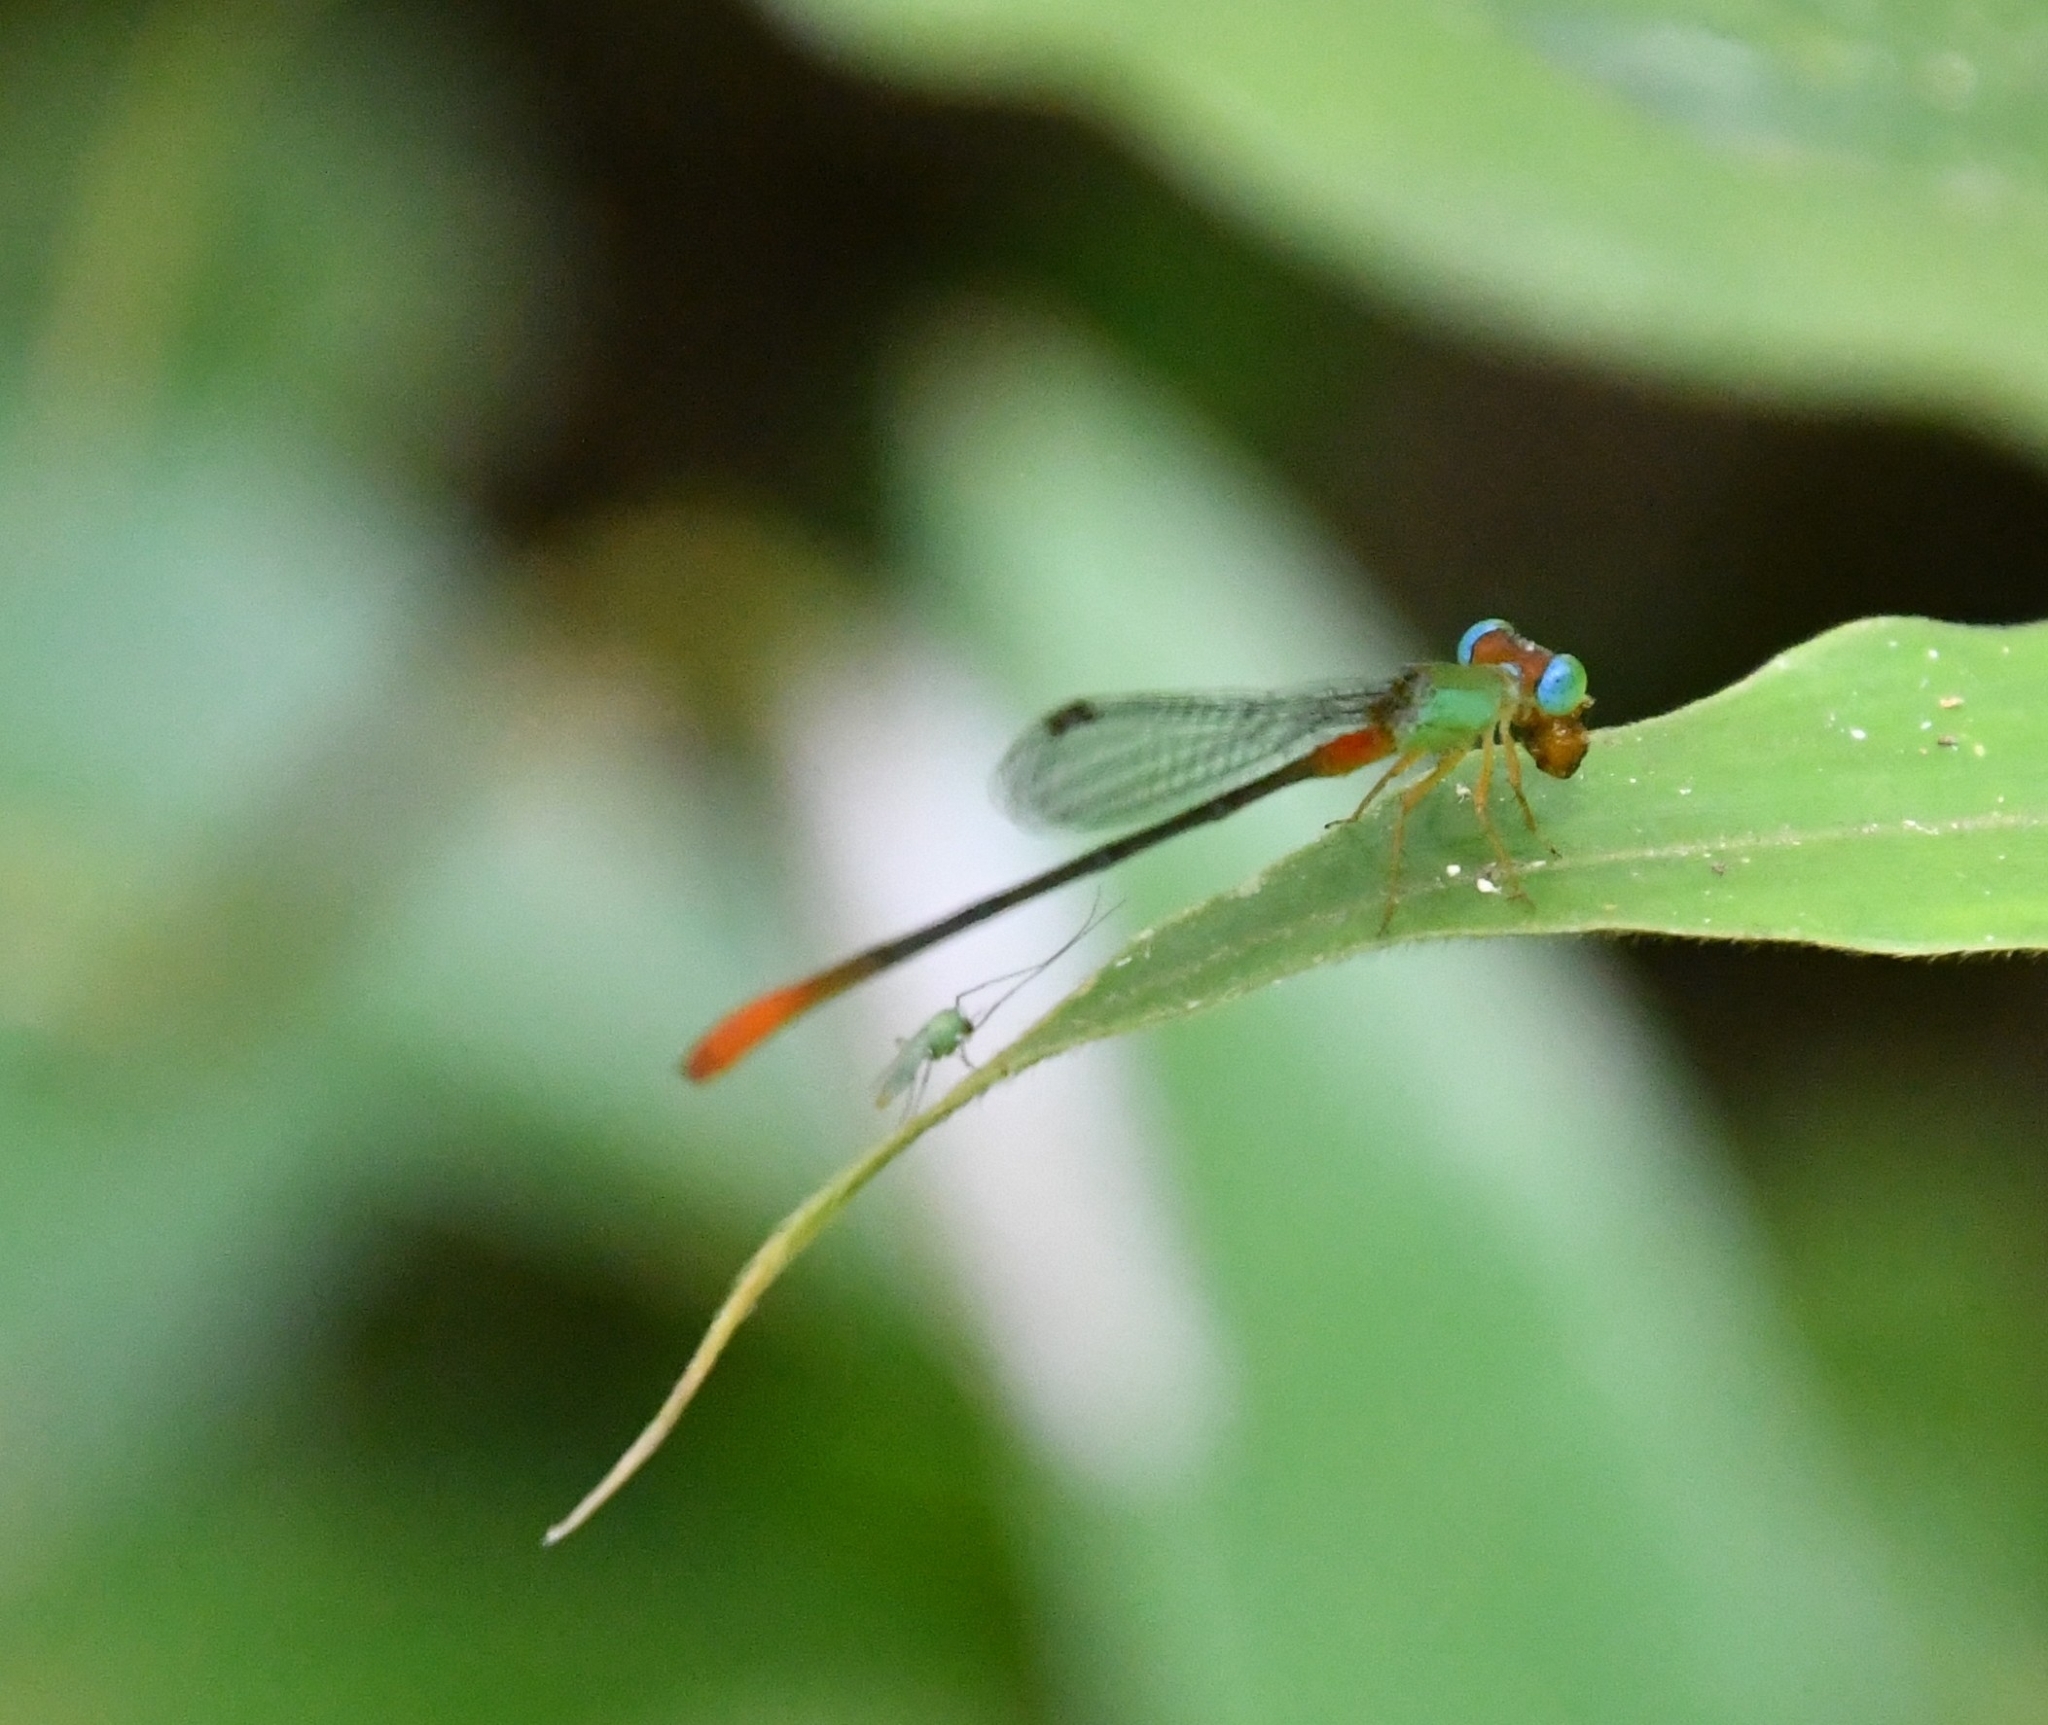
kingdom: Animalia
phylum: Arthropoda
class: Insecta
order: Odonata
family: Coenagrionidae
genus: Ceriagrion
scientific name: Ceriagrion cerinorubellum
